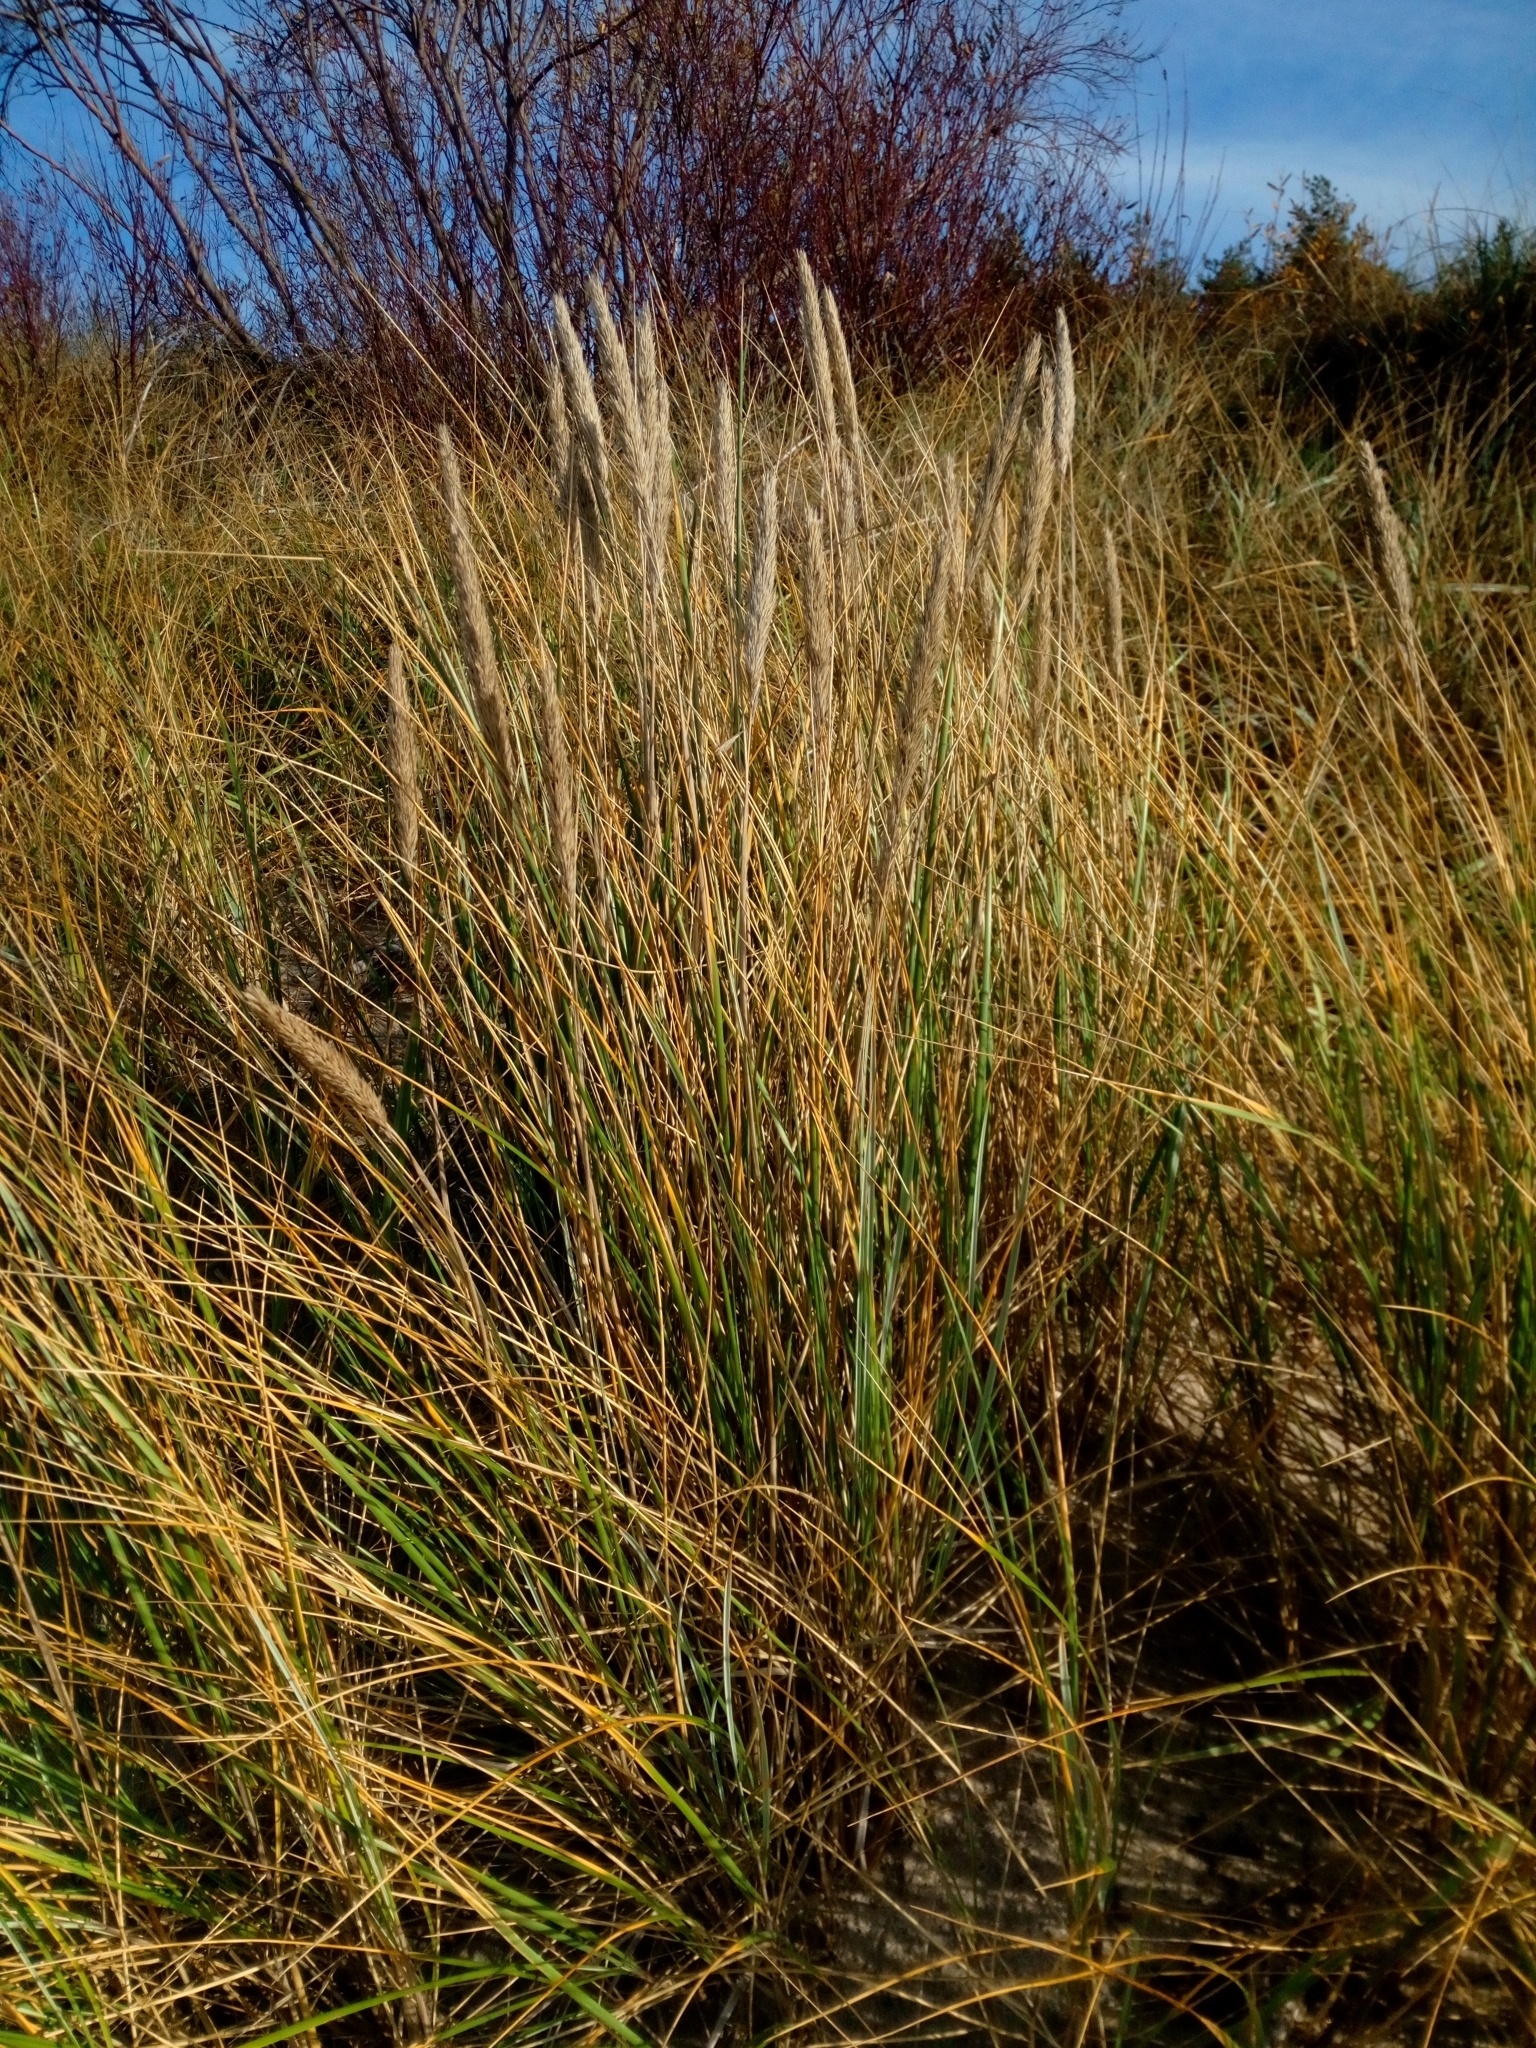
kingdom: Plantae
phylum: Tracheophyta
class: Liliopsida
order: Poales
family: Poaceae
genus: Calamagrostis
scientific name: Calamagrostis arenaria
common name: European beachgrass
